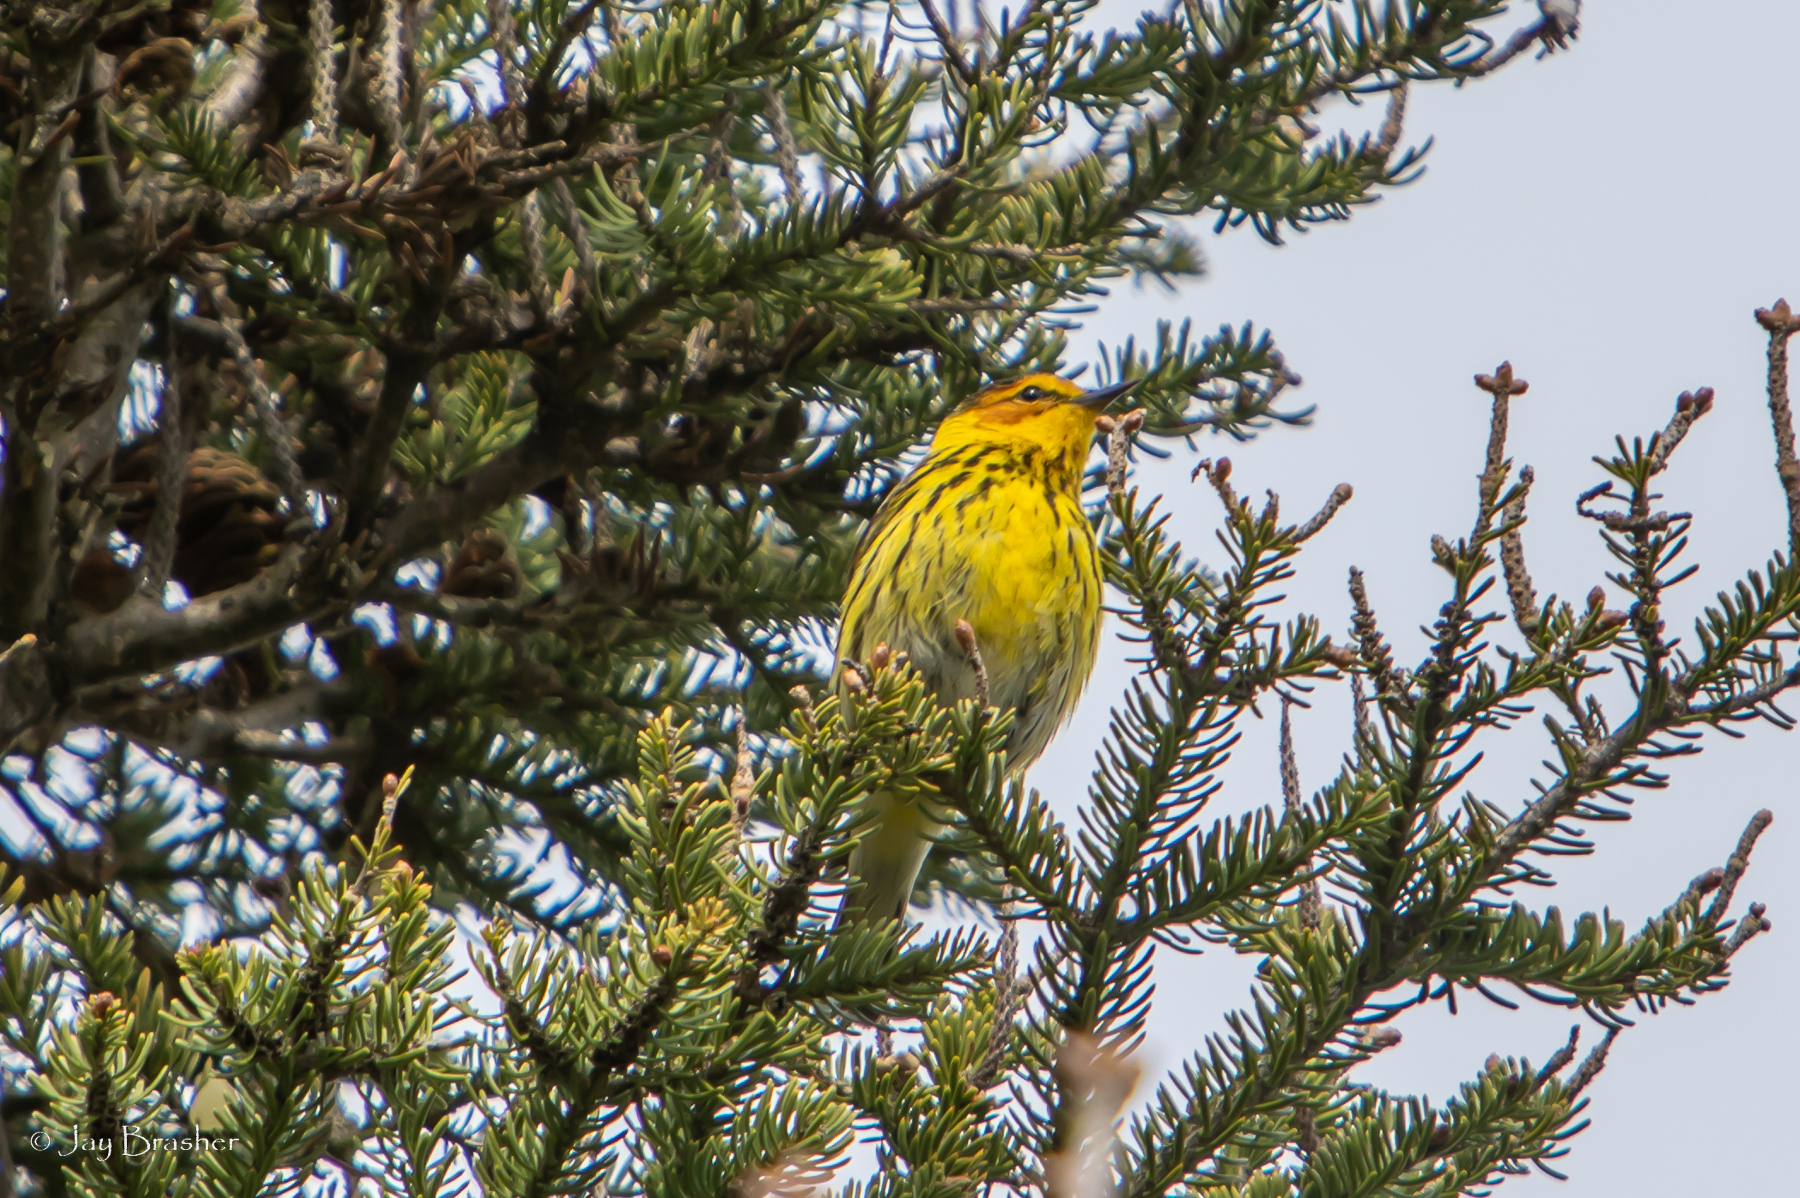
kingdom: Animalia
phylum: Chordata
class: Aves
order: Passeriformes
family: Parulidae
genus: Setophaga
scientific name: Setophaga tigrina
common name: Cape may warbler
